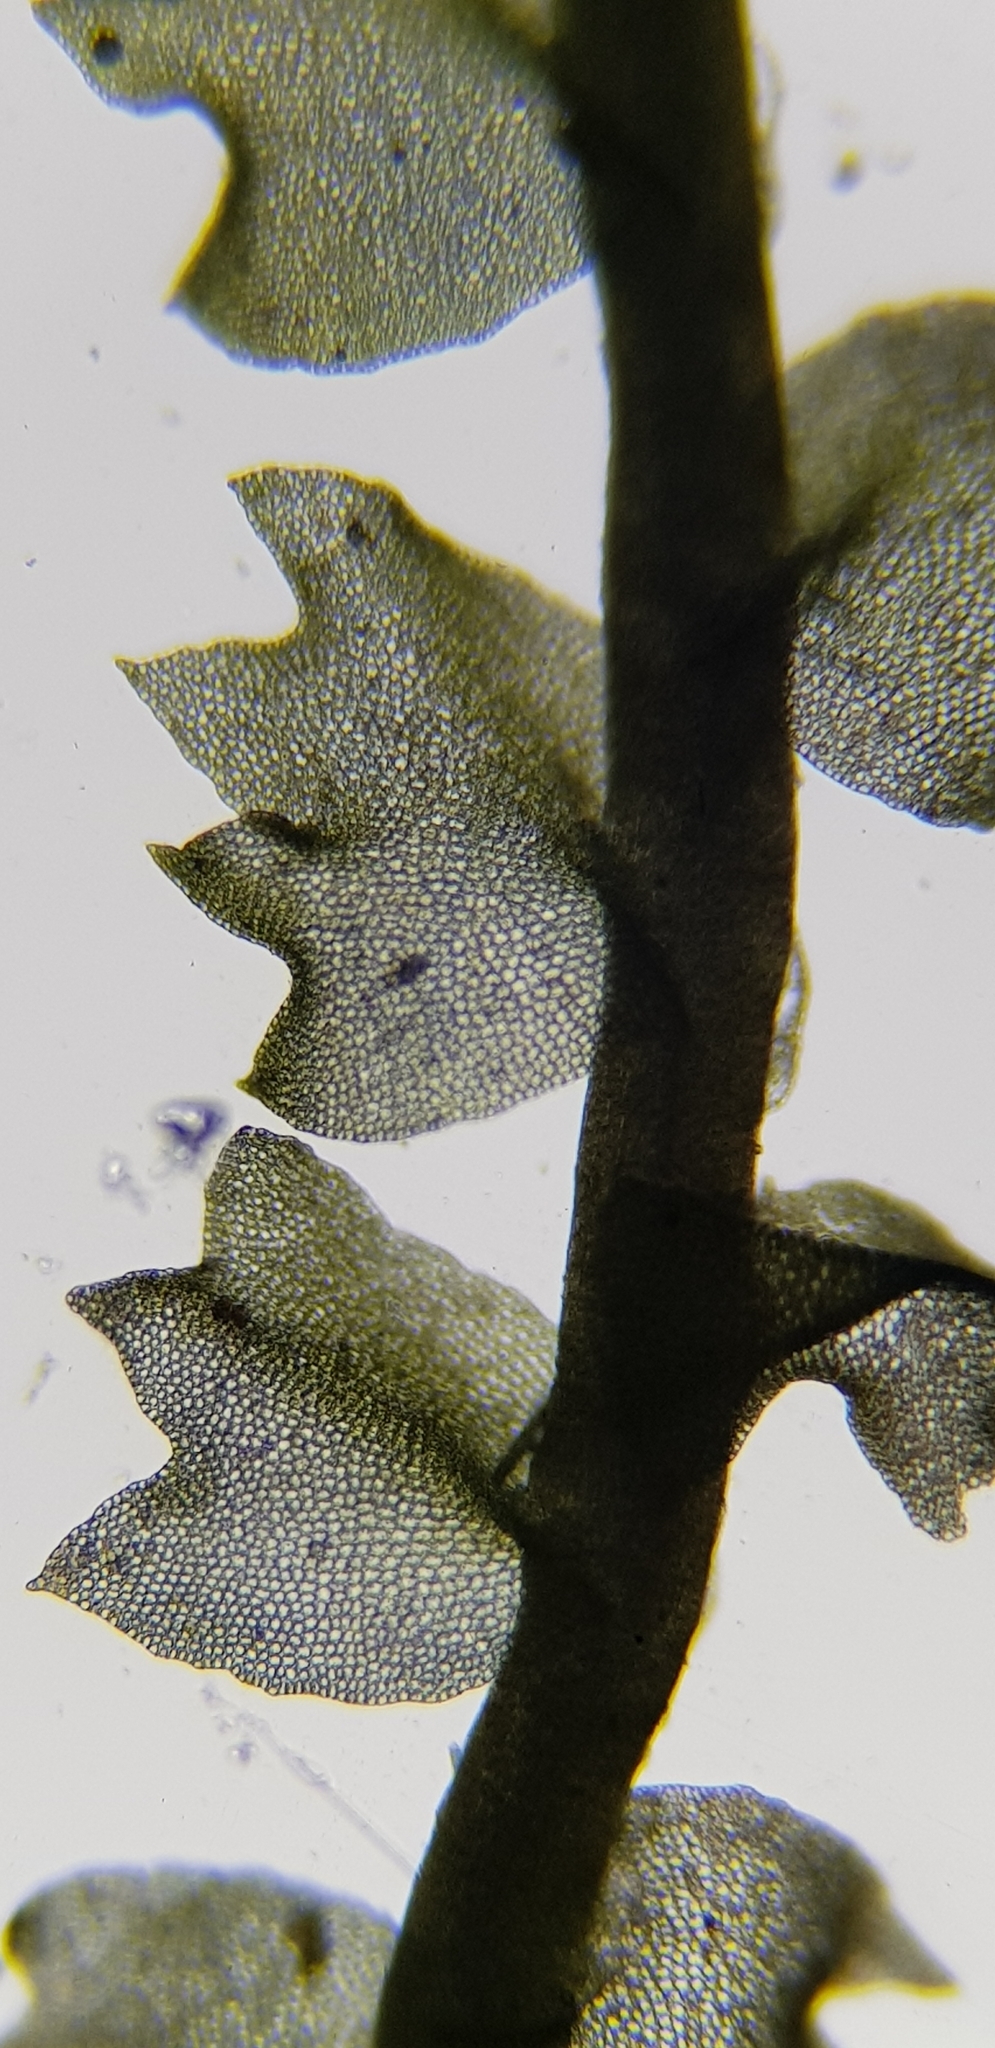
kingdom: Plantae
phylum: Marchantiophyta
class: Jungermanniopsida
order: Jungermanniales
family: Anastrophyllaceae
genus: Neoorthocaulis
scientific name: Neoorthocaulis floerkei
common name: Floerke's barbilophozia
